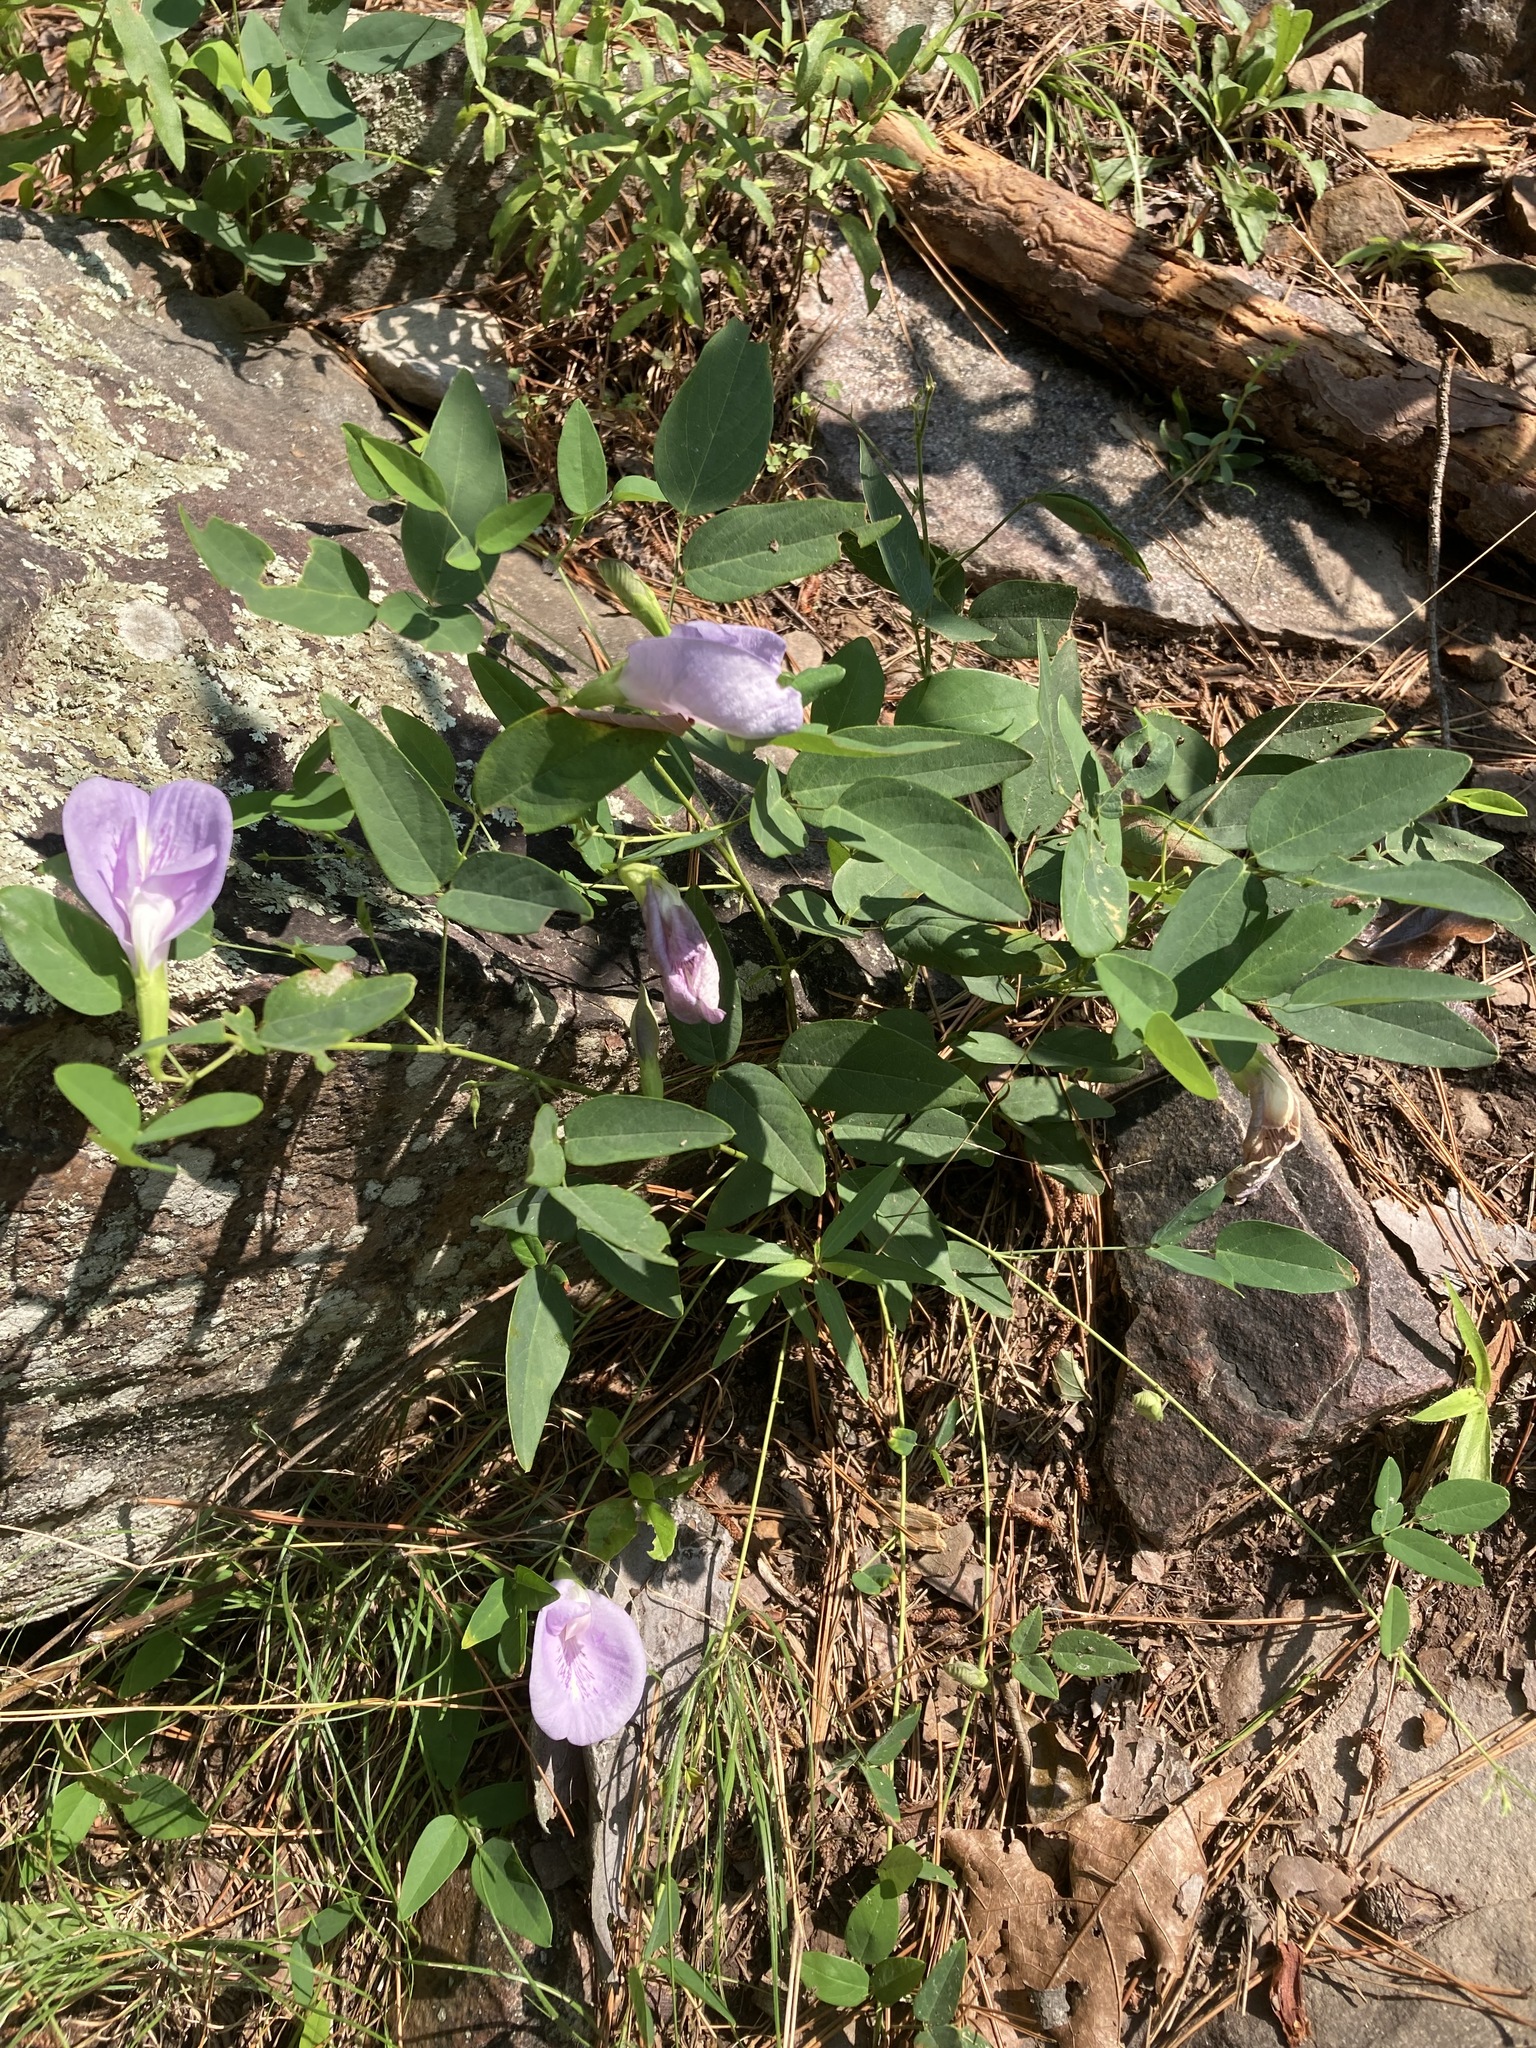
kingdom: Plantae
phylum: Tracheophyta
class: Magnoliopsida
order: Fabales
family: Fabaceae
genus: Clitoria
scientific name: Clitoria mariana
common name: Butterfly-pea
